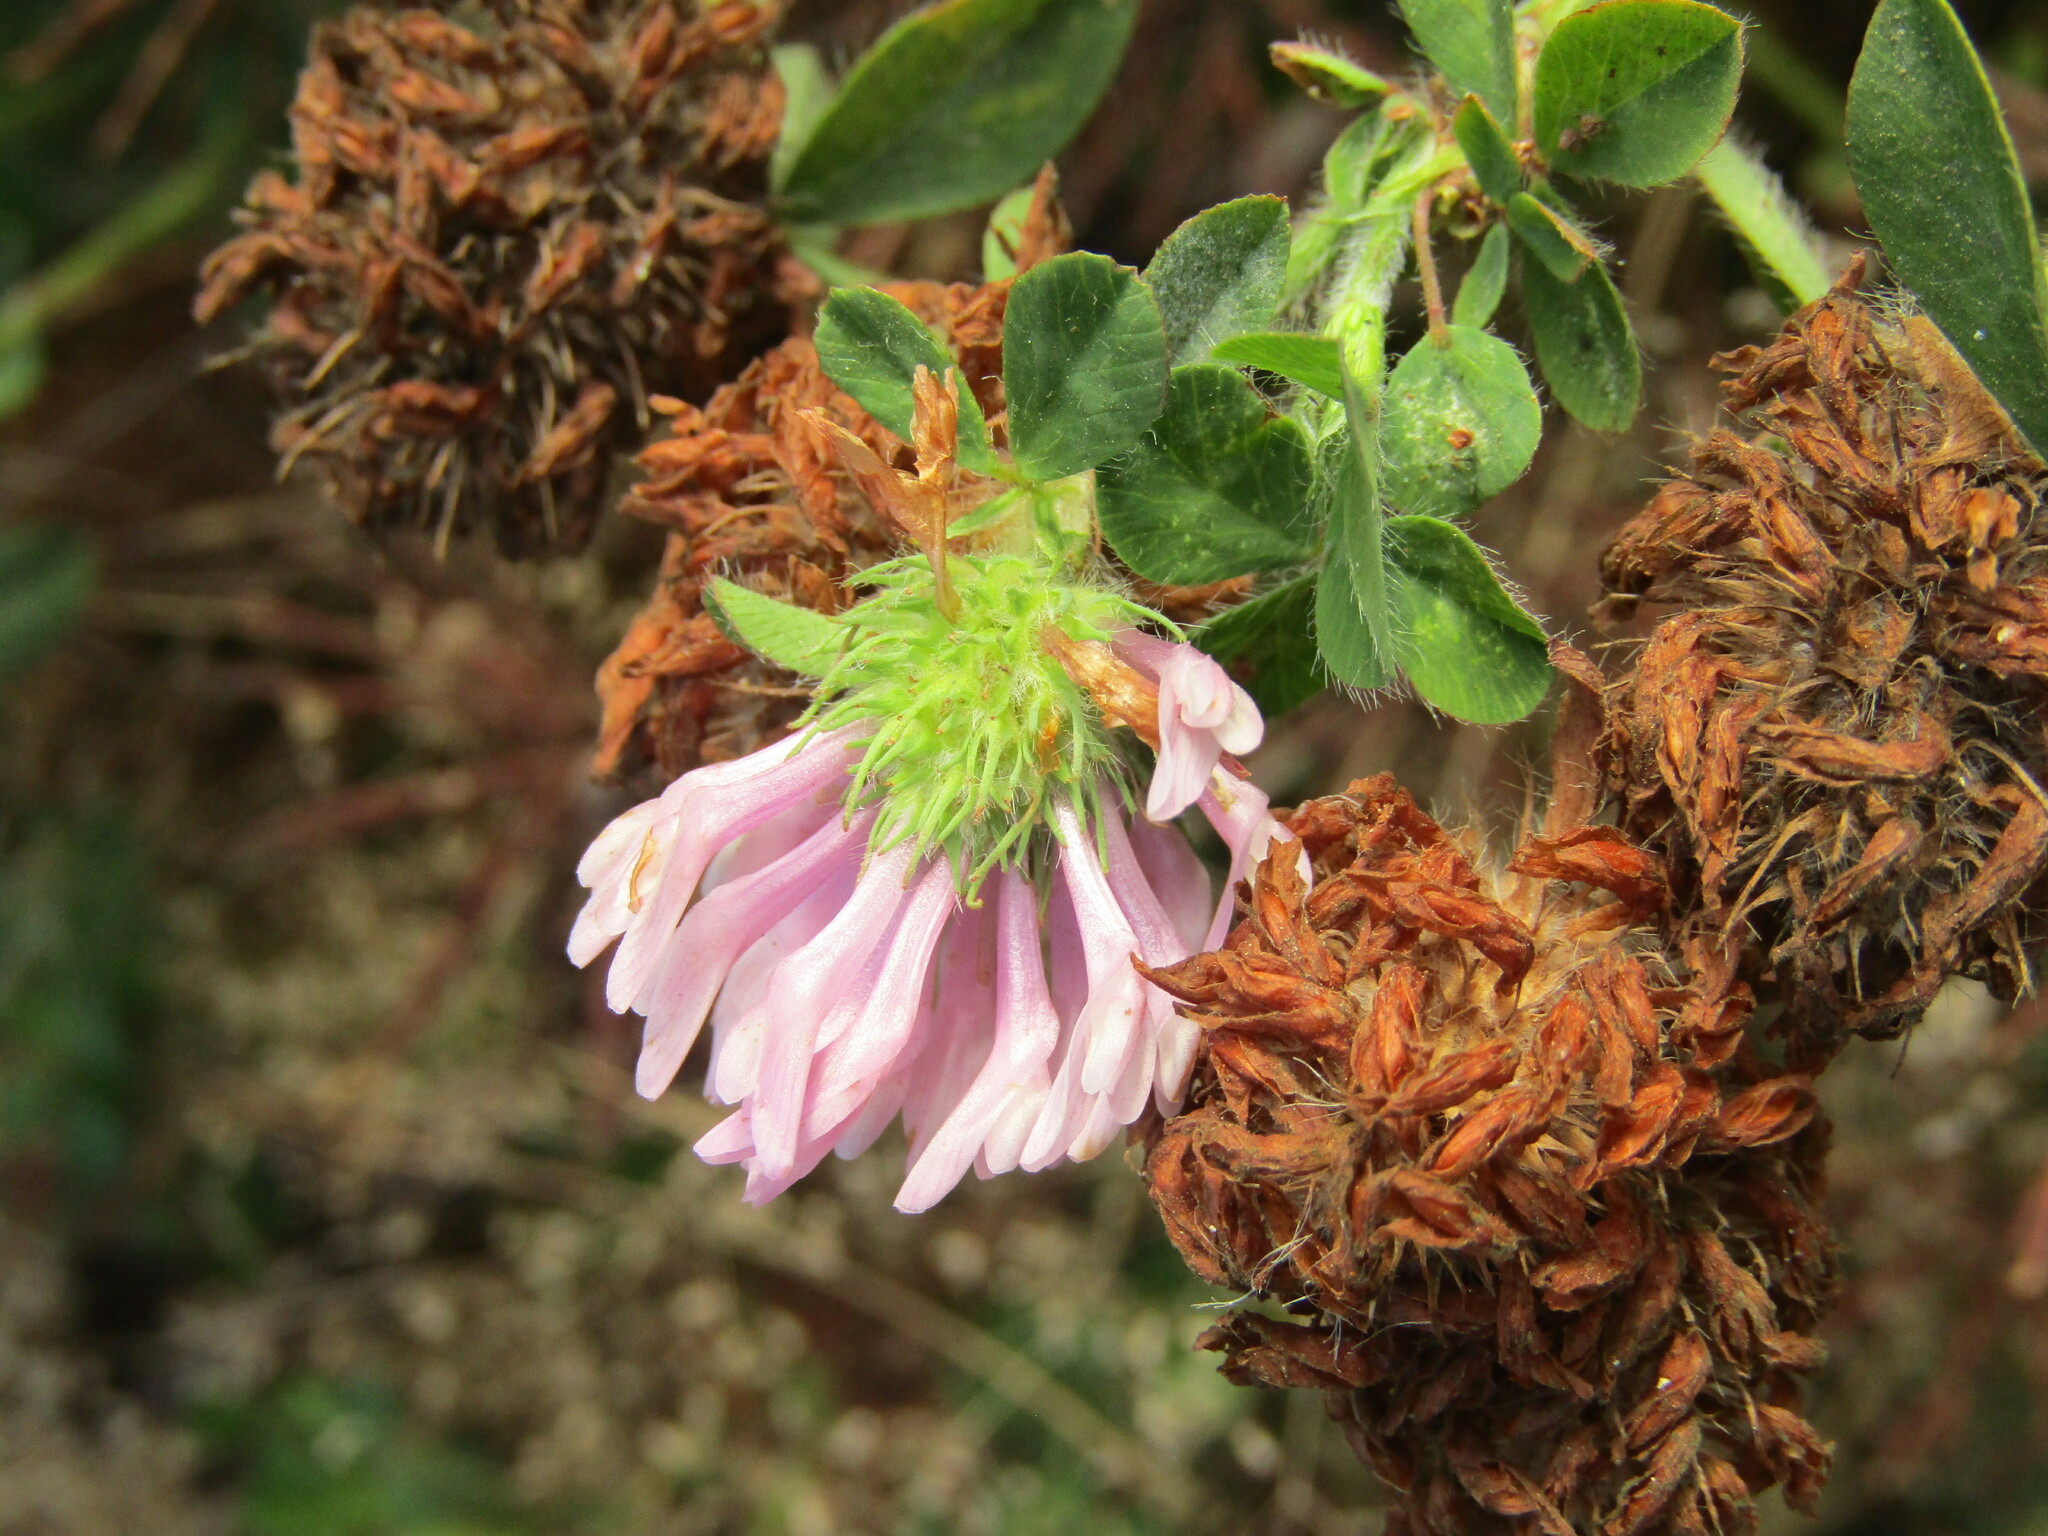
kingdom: Plantae
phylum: Tracheophyta
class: Magnoliopsida
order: Fabales
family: Fabaceae
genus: Trifolium
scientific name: Trifolium pratense
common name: Red clover
